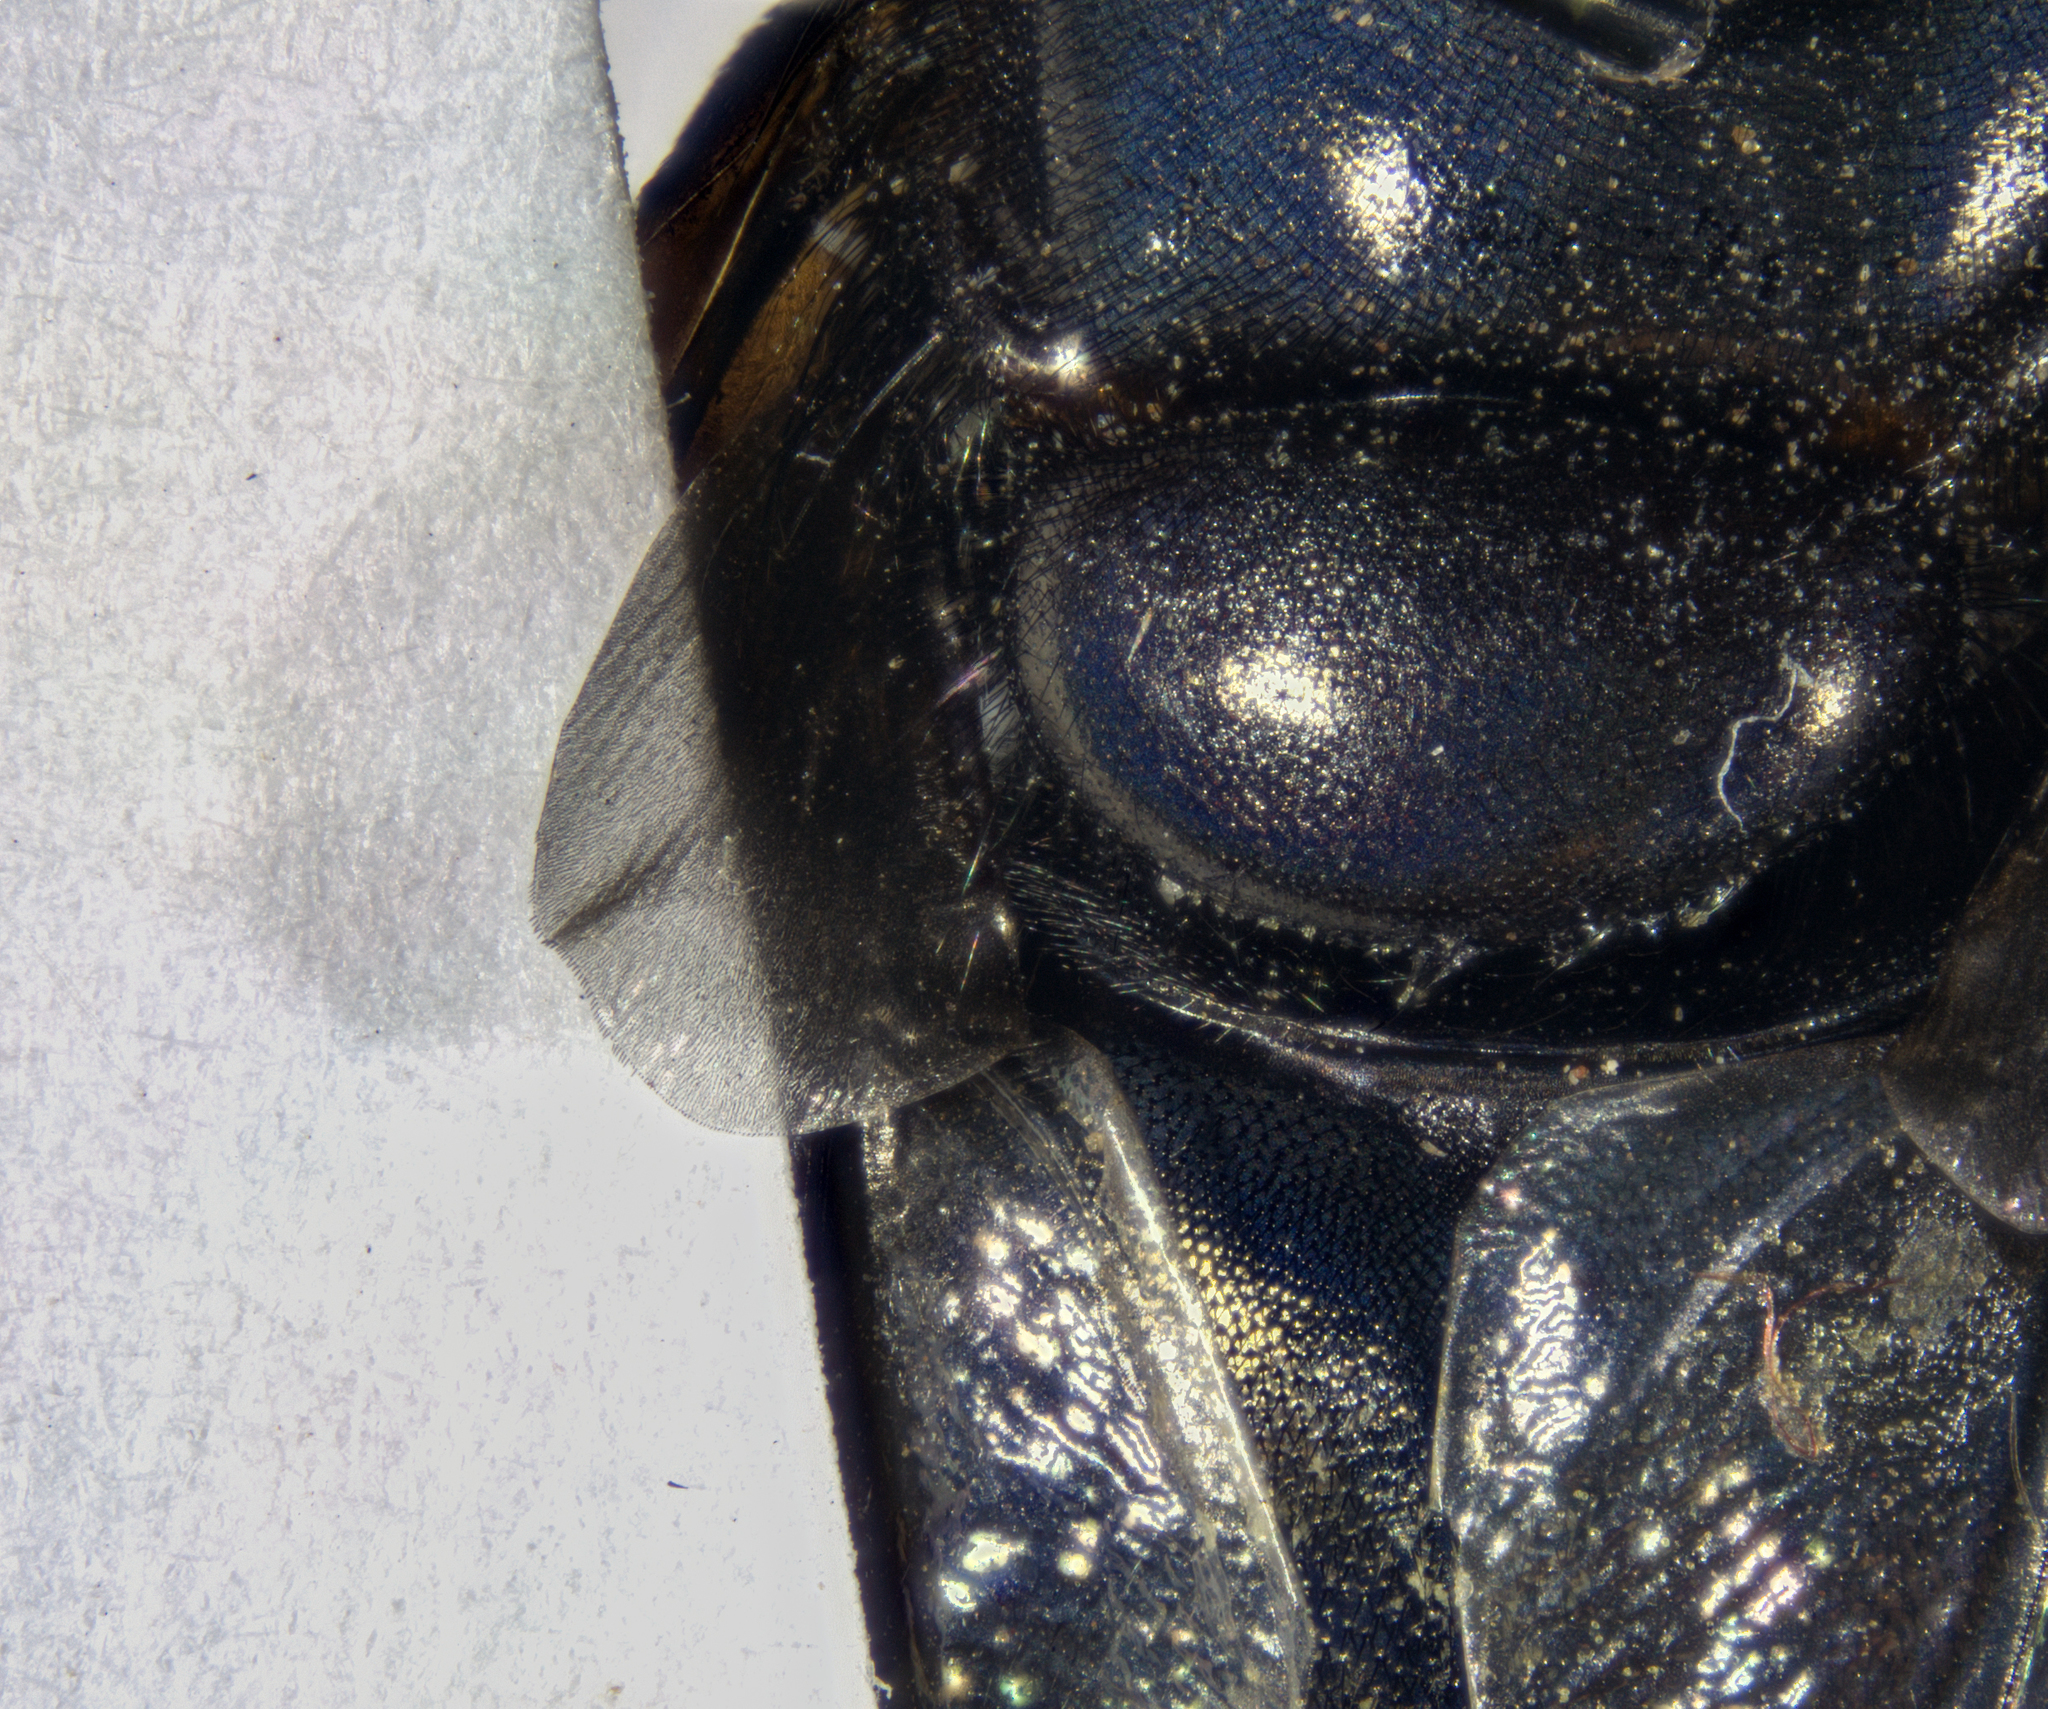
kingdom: Animalia
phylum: Arthropoda
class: Insecta
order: Diptera
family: Syrphidae
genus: Copestylum
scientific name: Copestylum mexicanum
